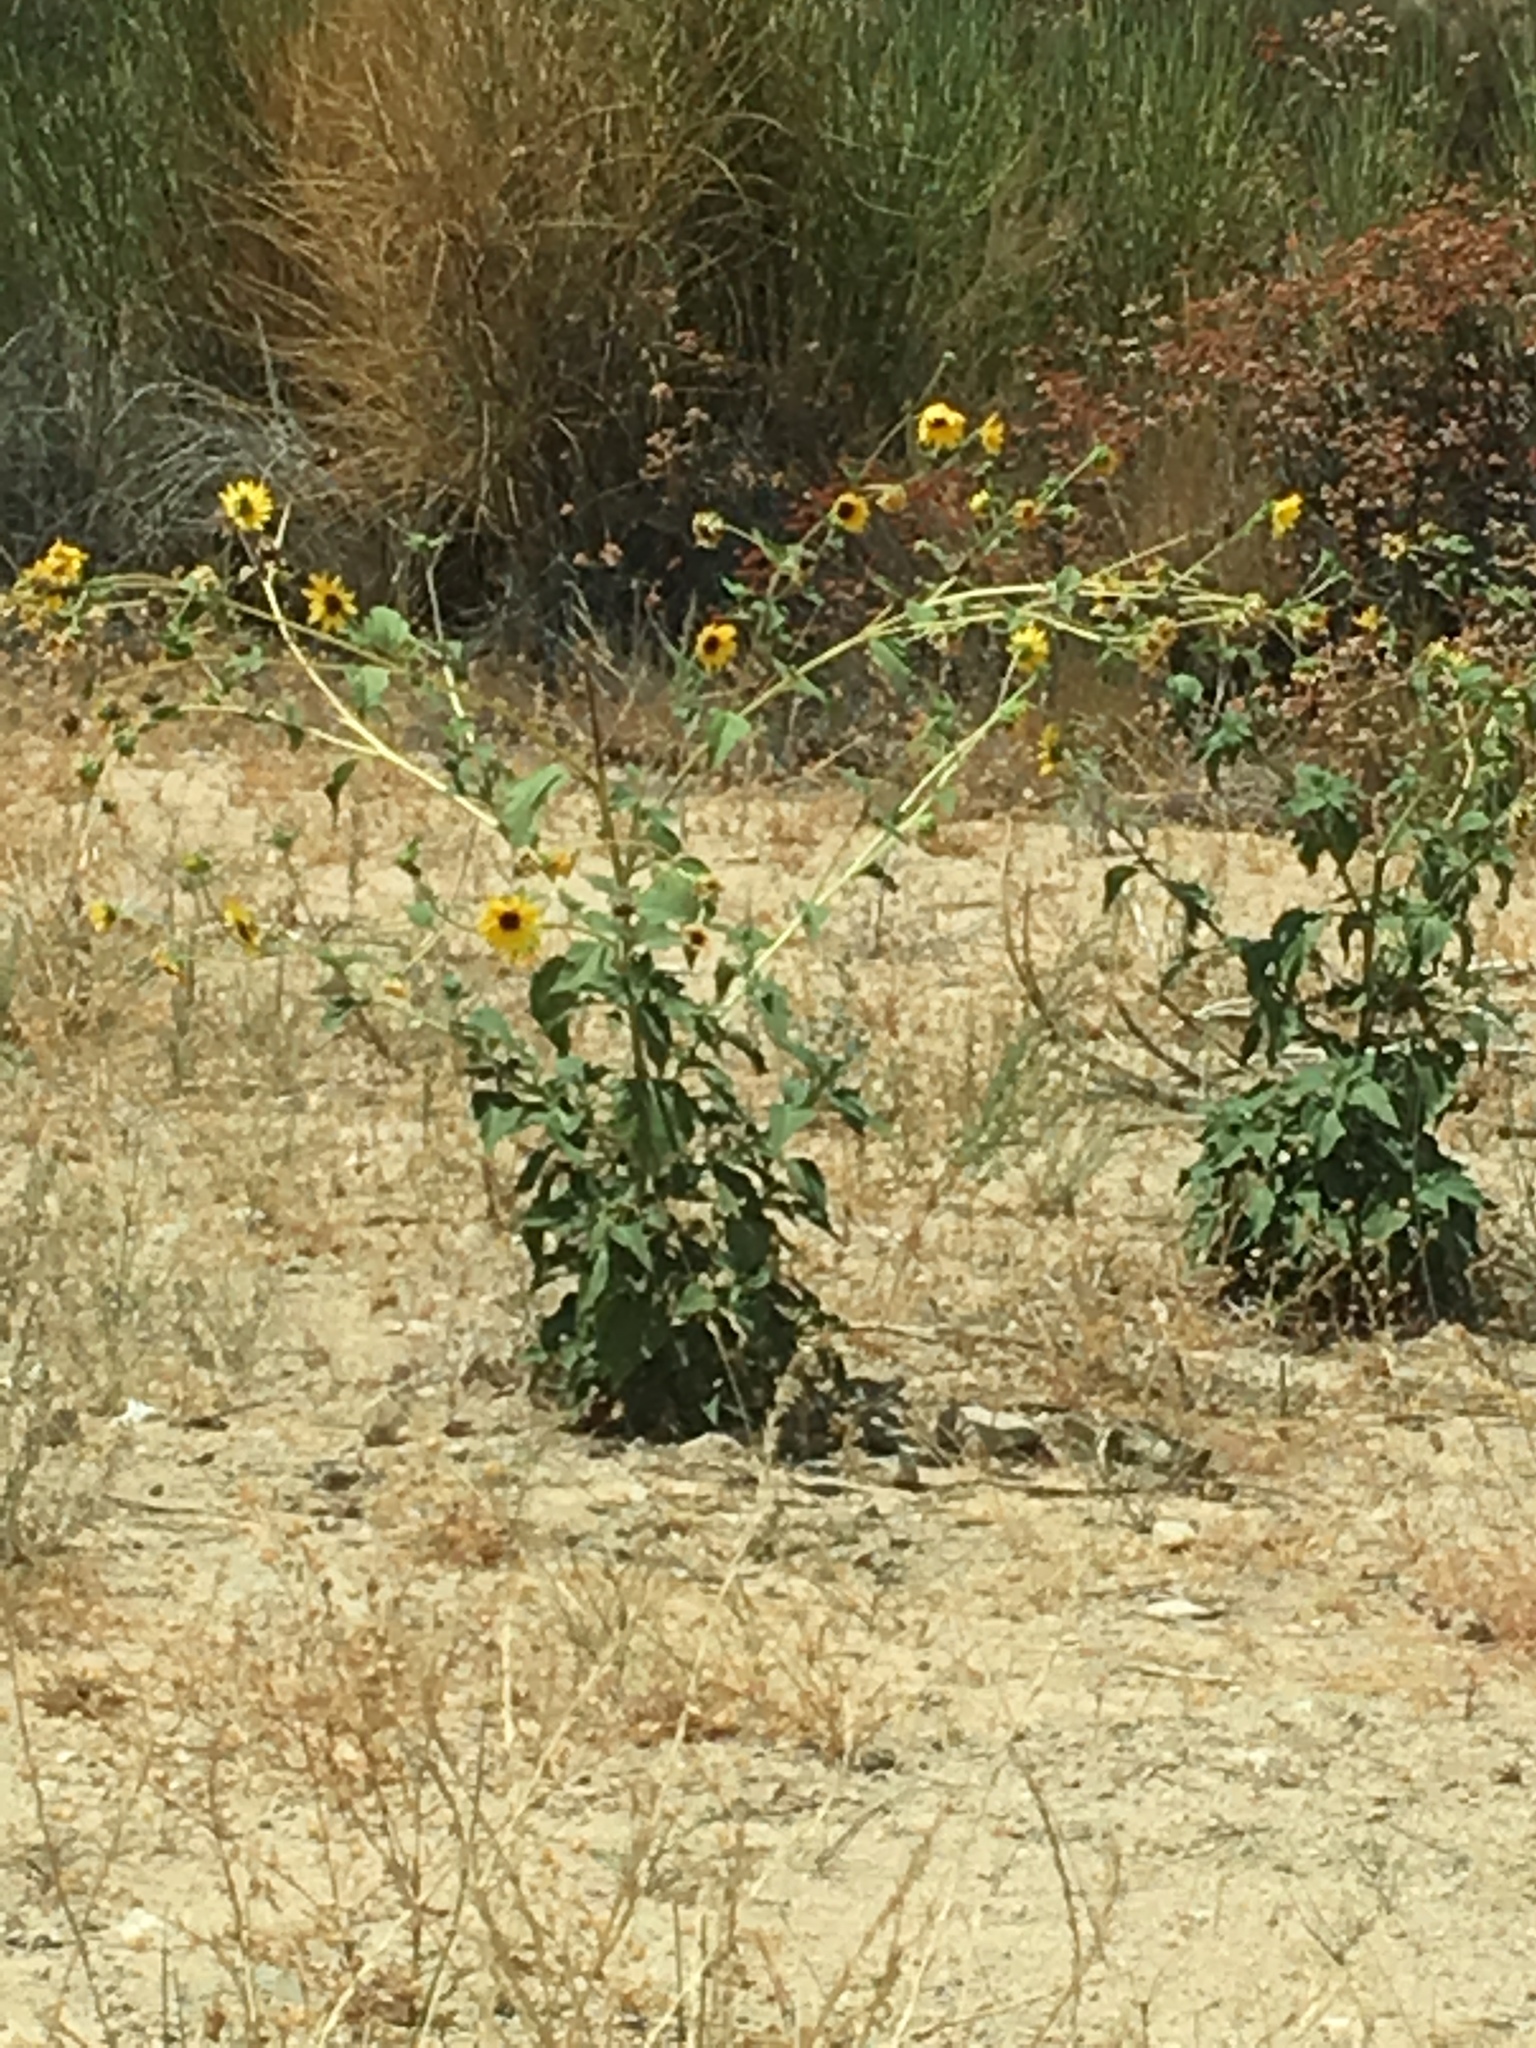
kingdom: Plantae
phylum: Tracheophyta
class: Magnoliopsida
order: Asterales
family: Asteraceae
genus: Helianthus
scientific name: Helianthus annuus
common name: Sunflower
